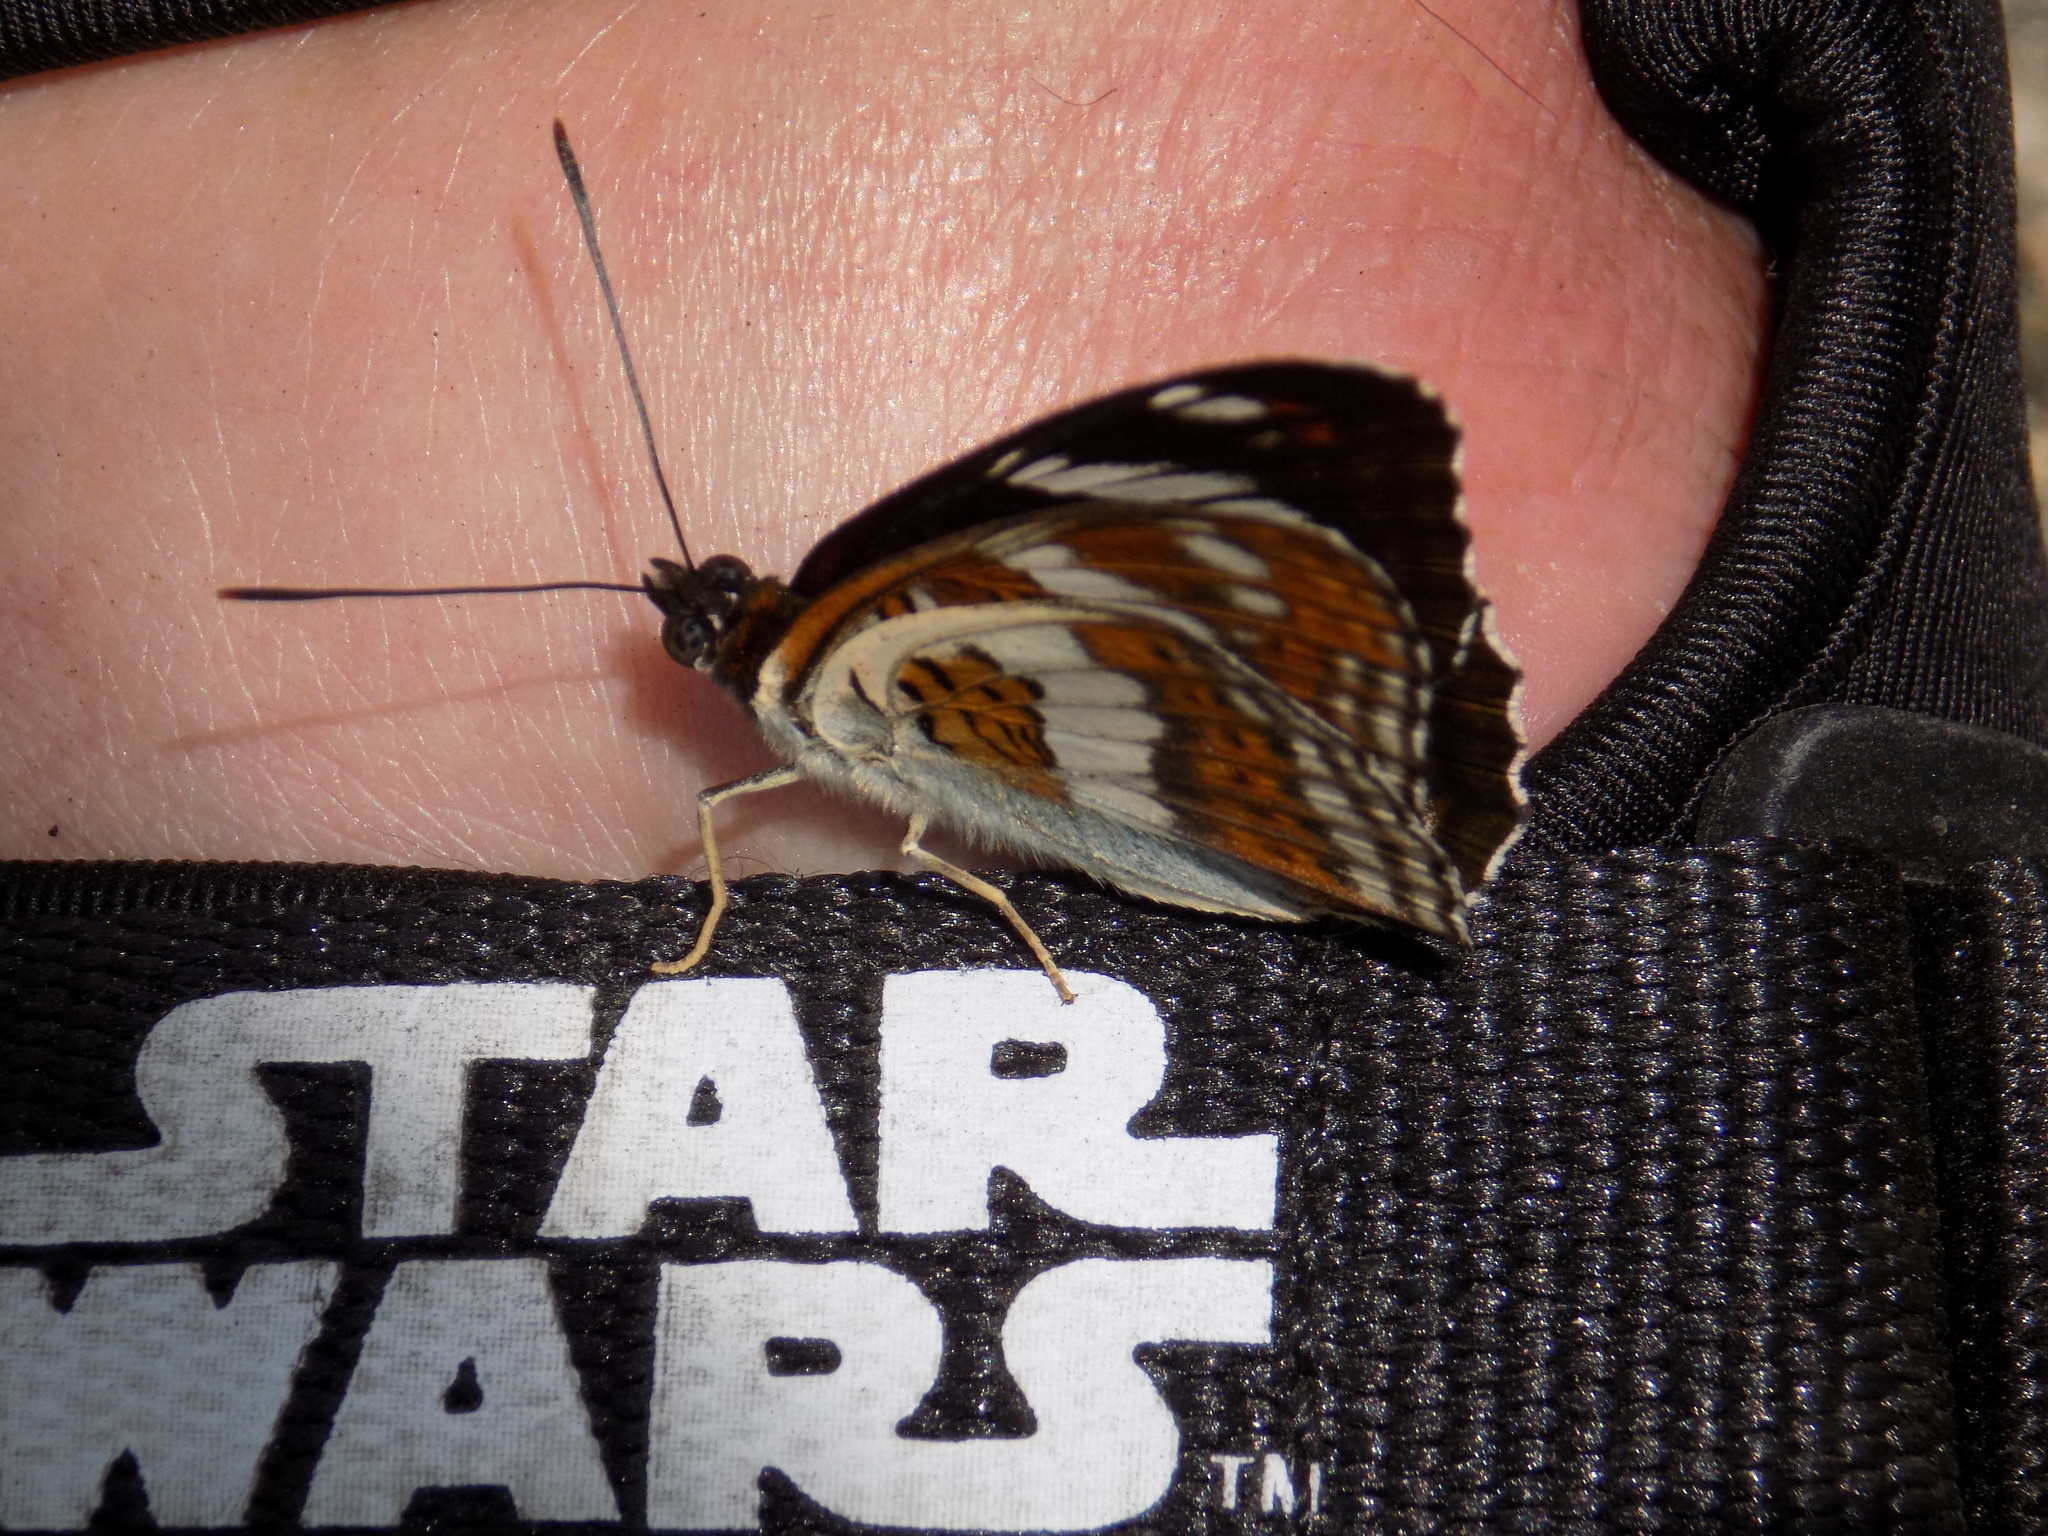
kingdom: Animalia
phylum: Arthropoda
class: Insecta
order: Lepidoptera
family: Nymphalidae
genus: Limenitis
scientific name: Limenitis sydyi
